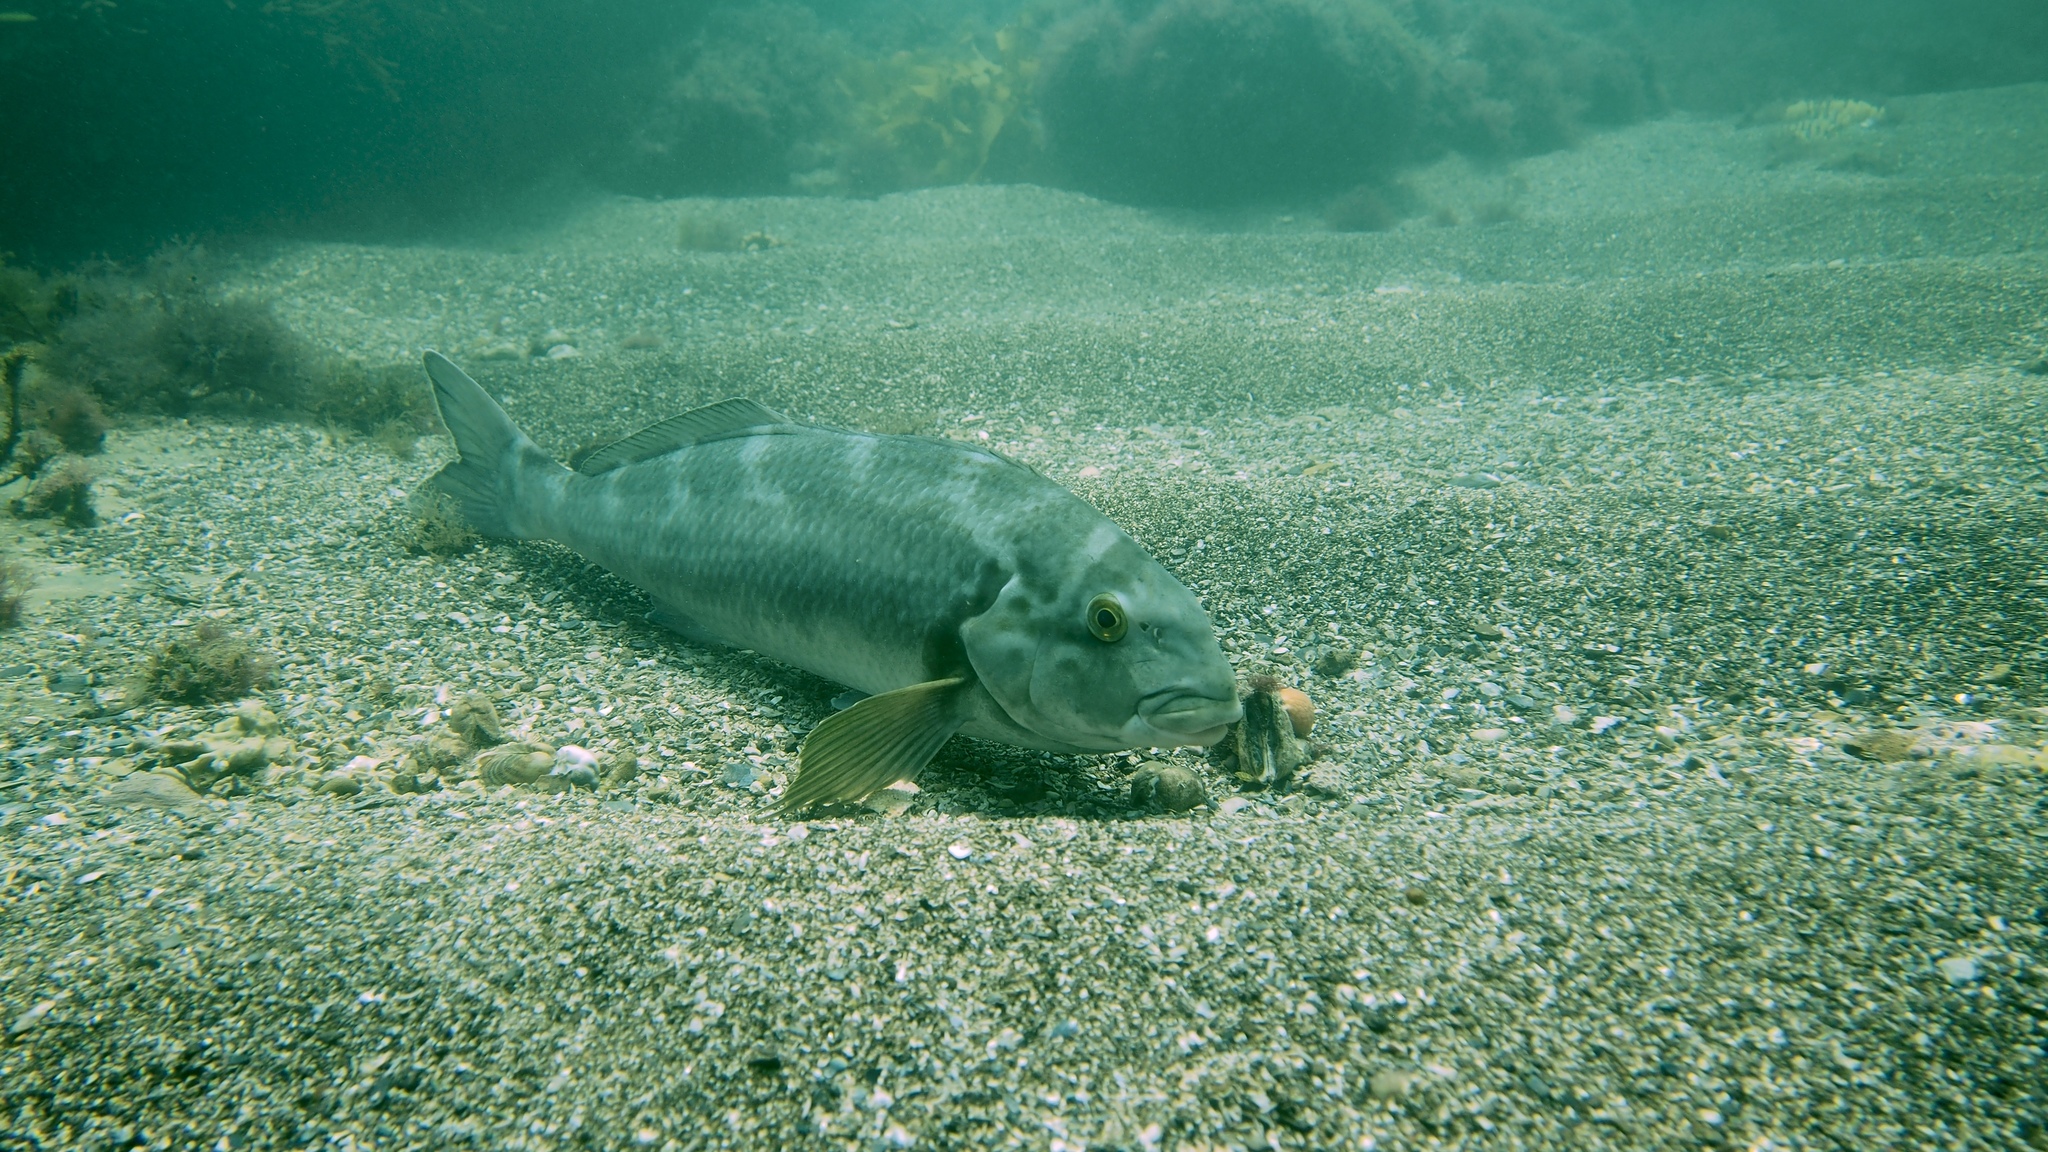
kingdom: Animalia
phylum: Chordata
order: Perciformes
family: Cheilodactylidae
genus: Dactylophora
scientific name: Dactylophora nigricans
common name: Dusky morwong
